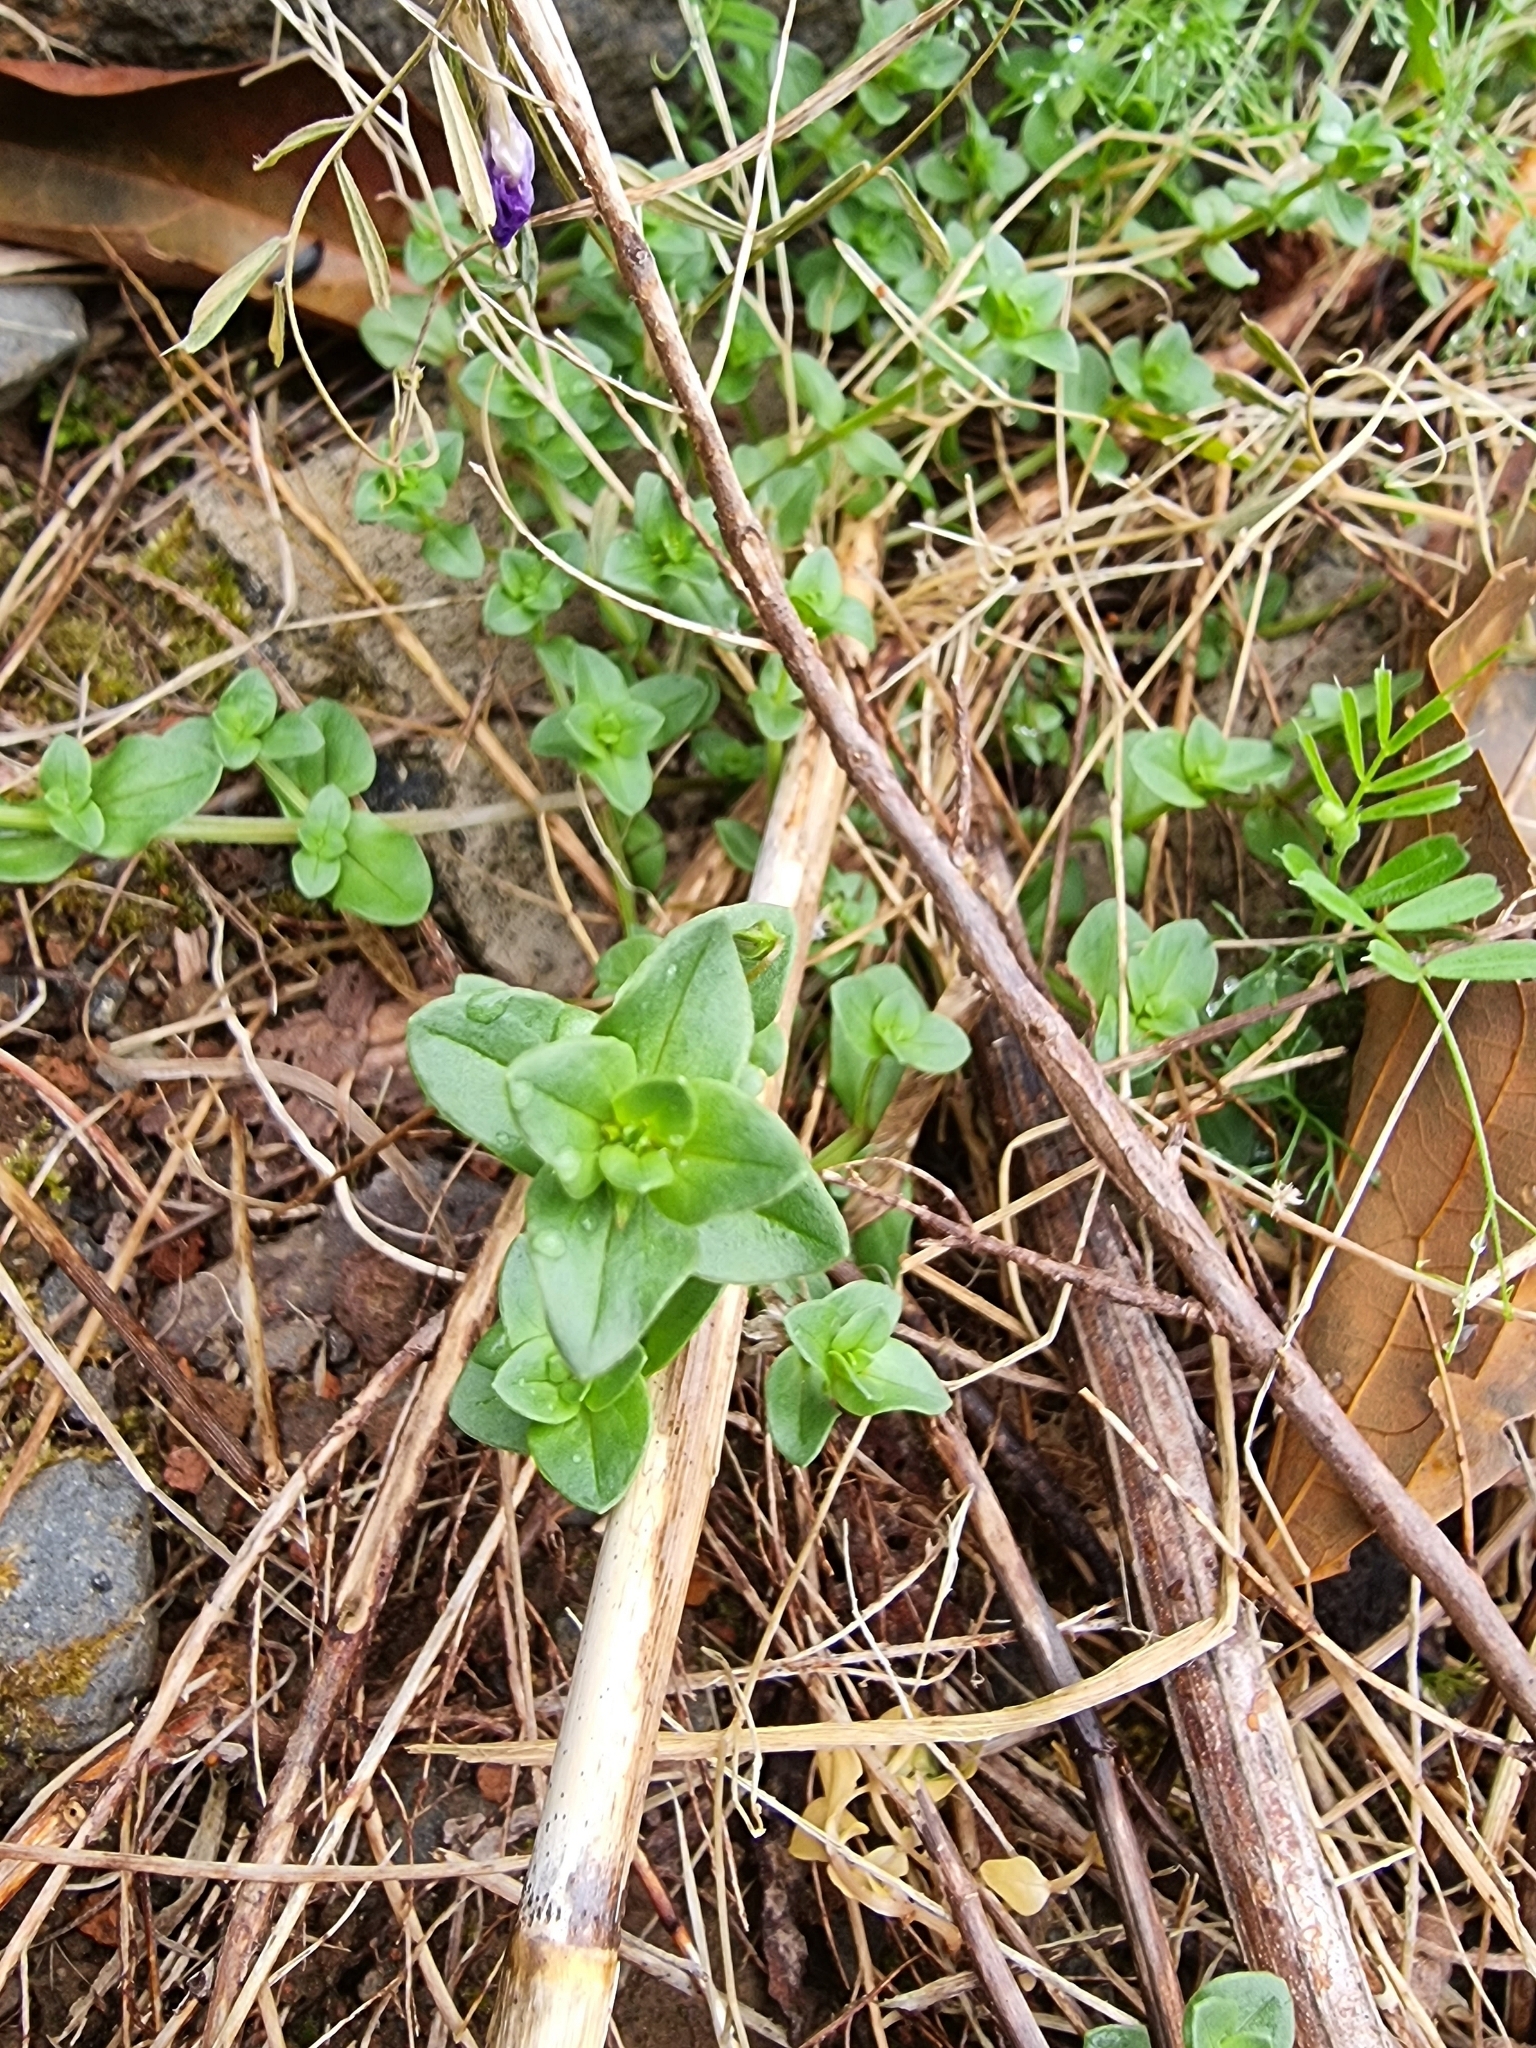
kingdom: Plantae
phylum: Tracheophyta
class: Magnoliopsida
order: Ericales
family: Primulaceae
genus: Lysimachia
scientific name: Lysimachia arvensis
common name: Scarlet pimpernel
